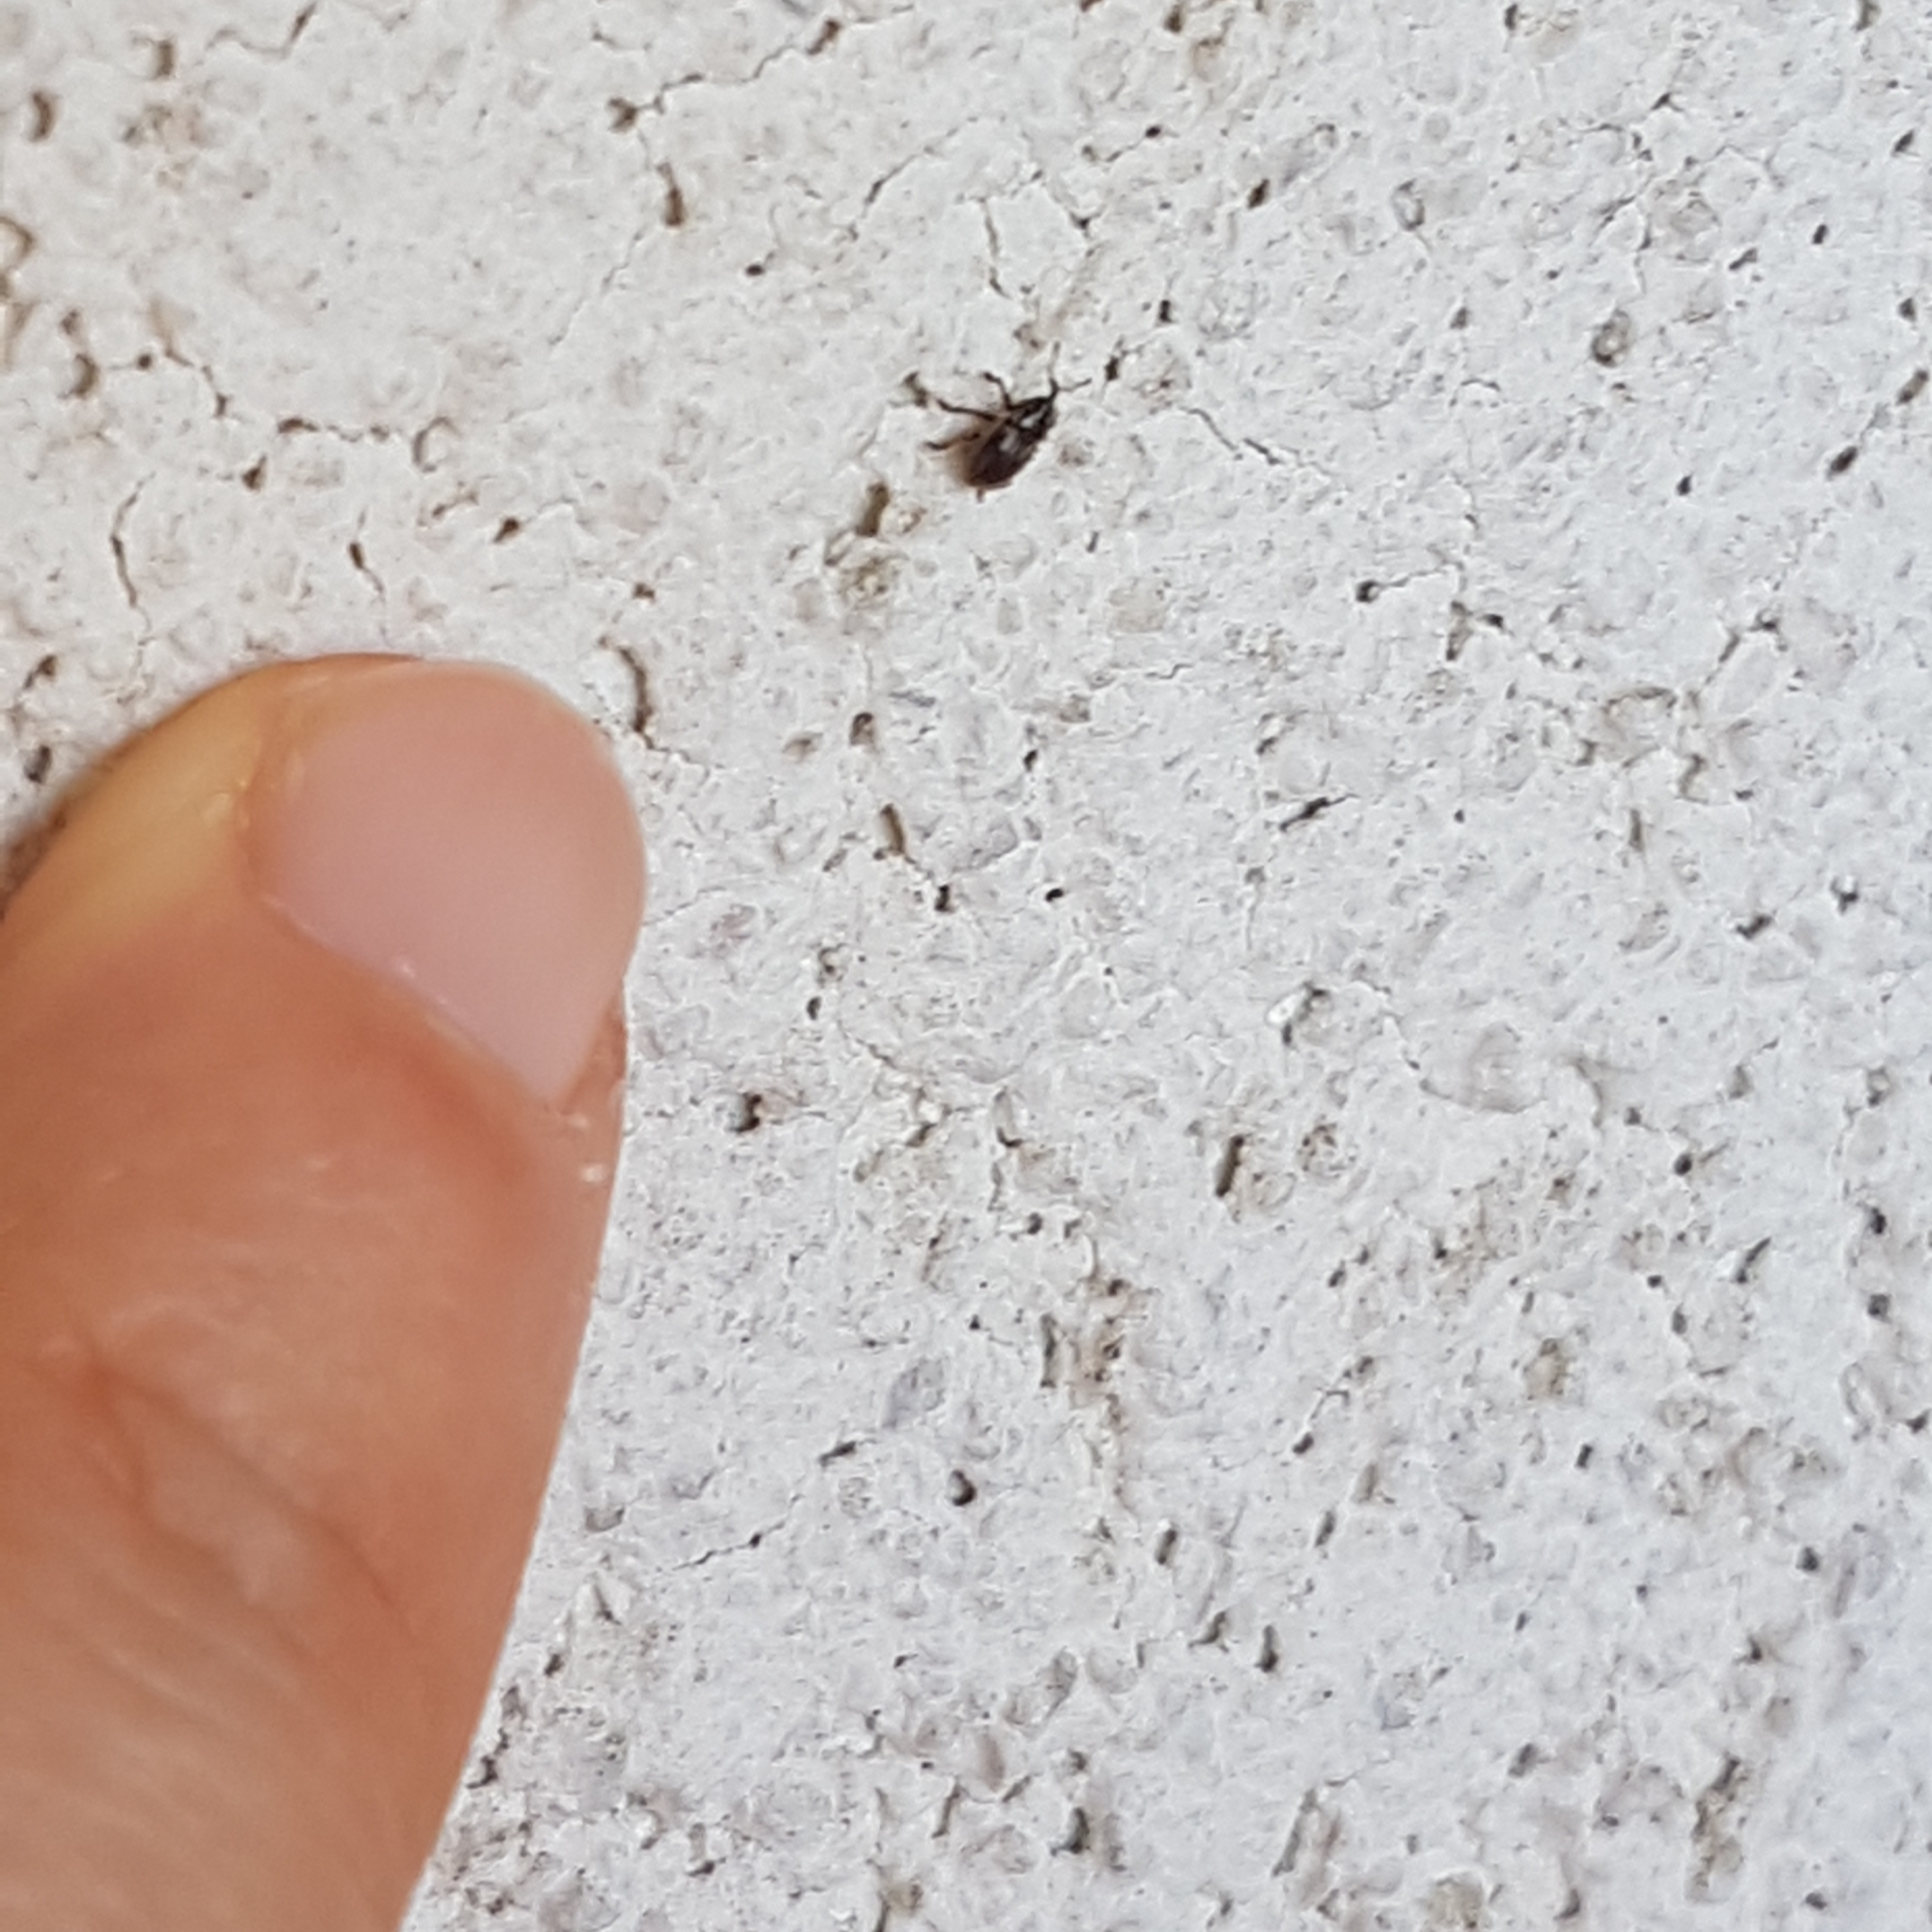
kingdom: Animalia
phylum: Arthropoda
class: Insecta
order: Coleoptera
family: Curculionidae
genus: Pachytychius
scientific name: Pachytychius hordei
